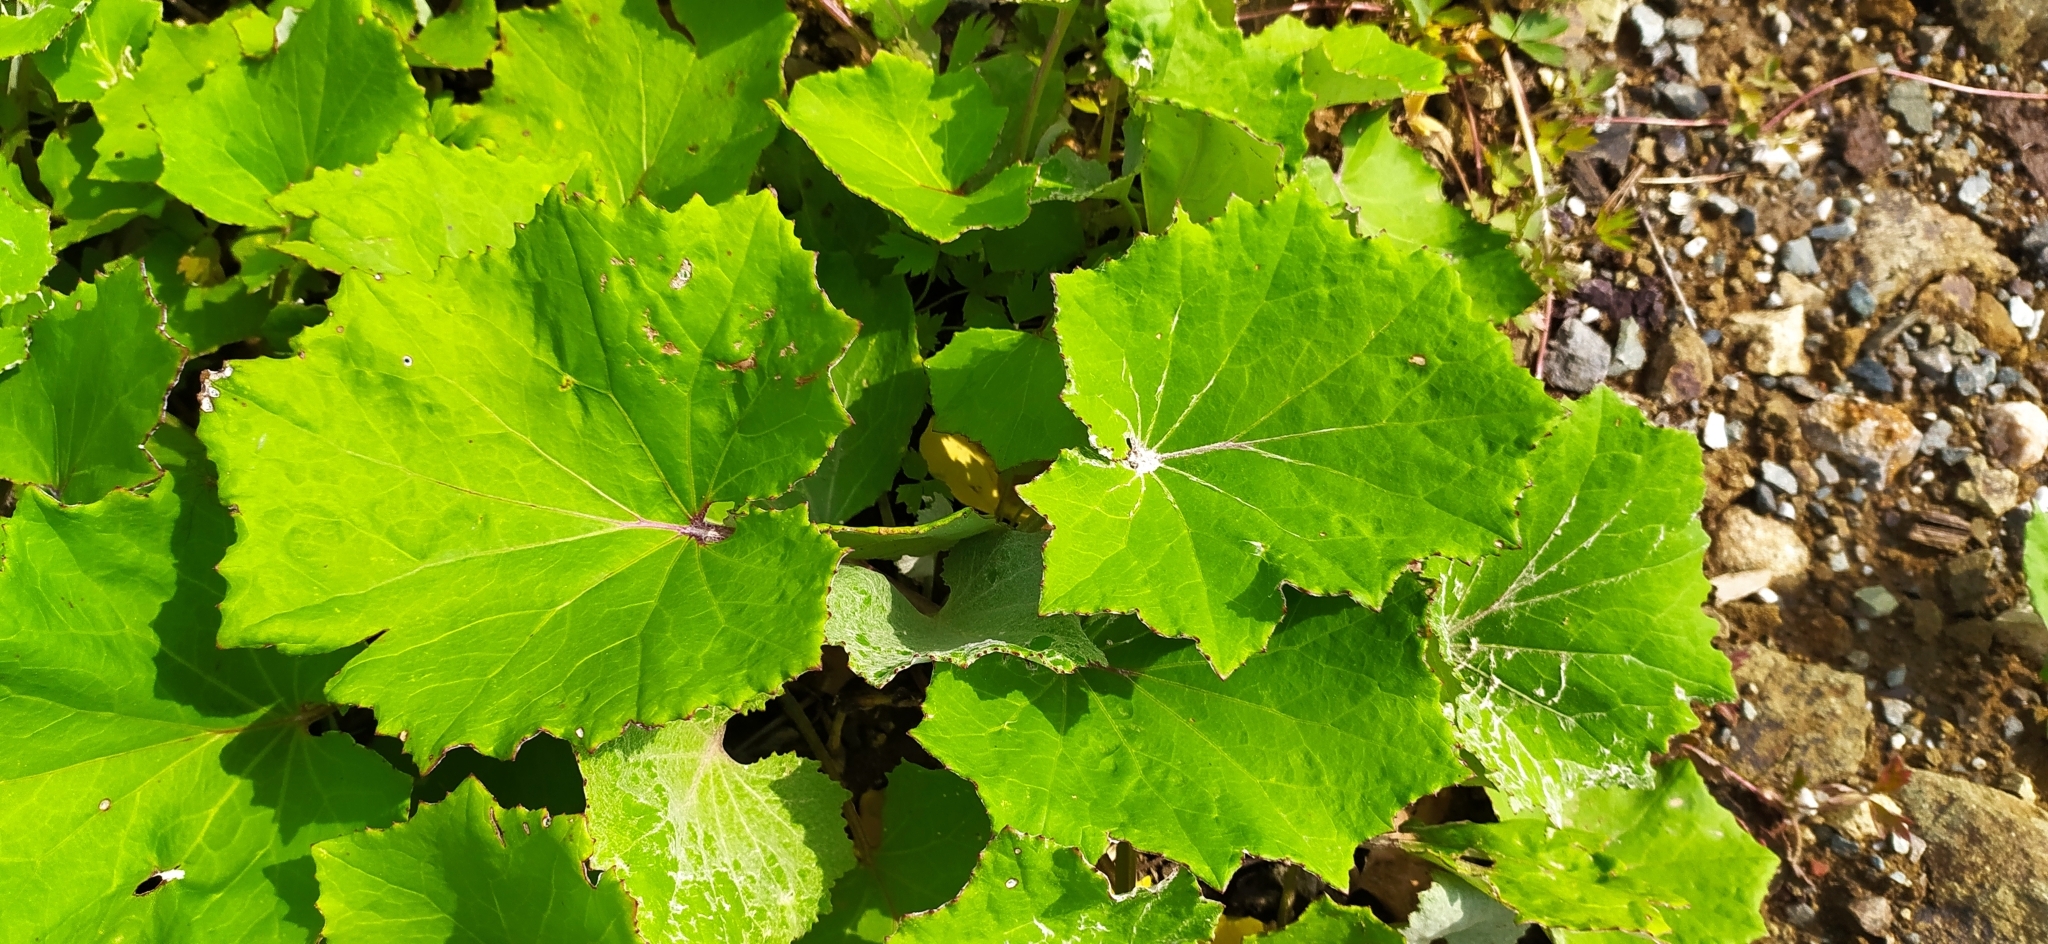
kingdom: Plantae
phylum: Tracheophyta
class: Magnoliopsida
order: Asterales
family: Asteraceae
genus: Tussilago
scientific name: Tussilago farfara
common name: Coltsfoot
